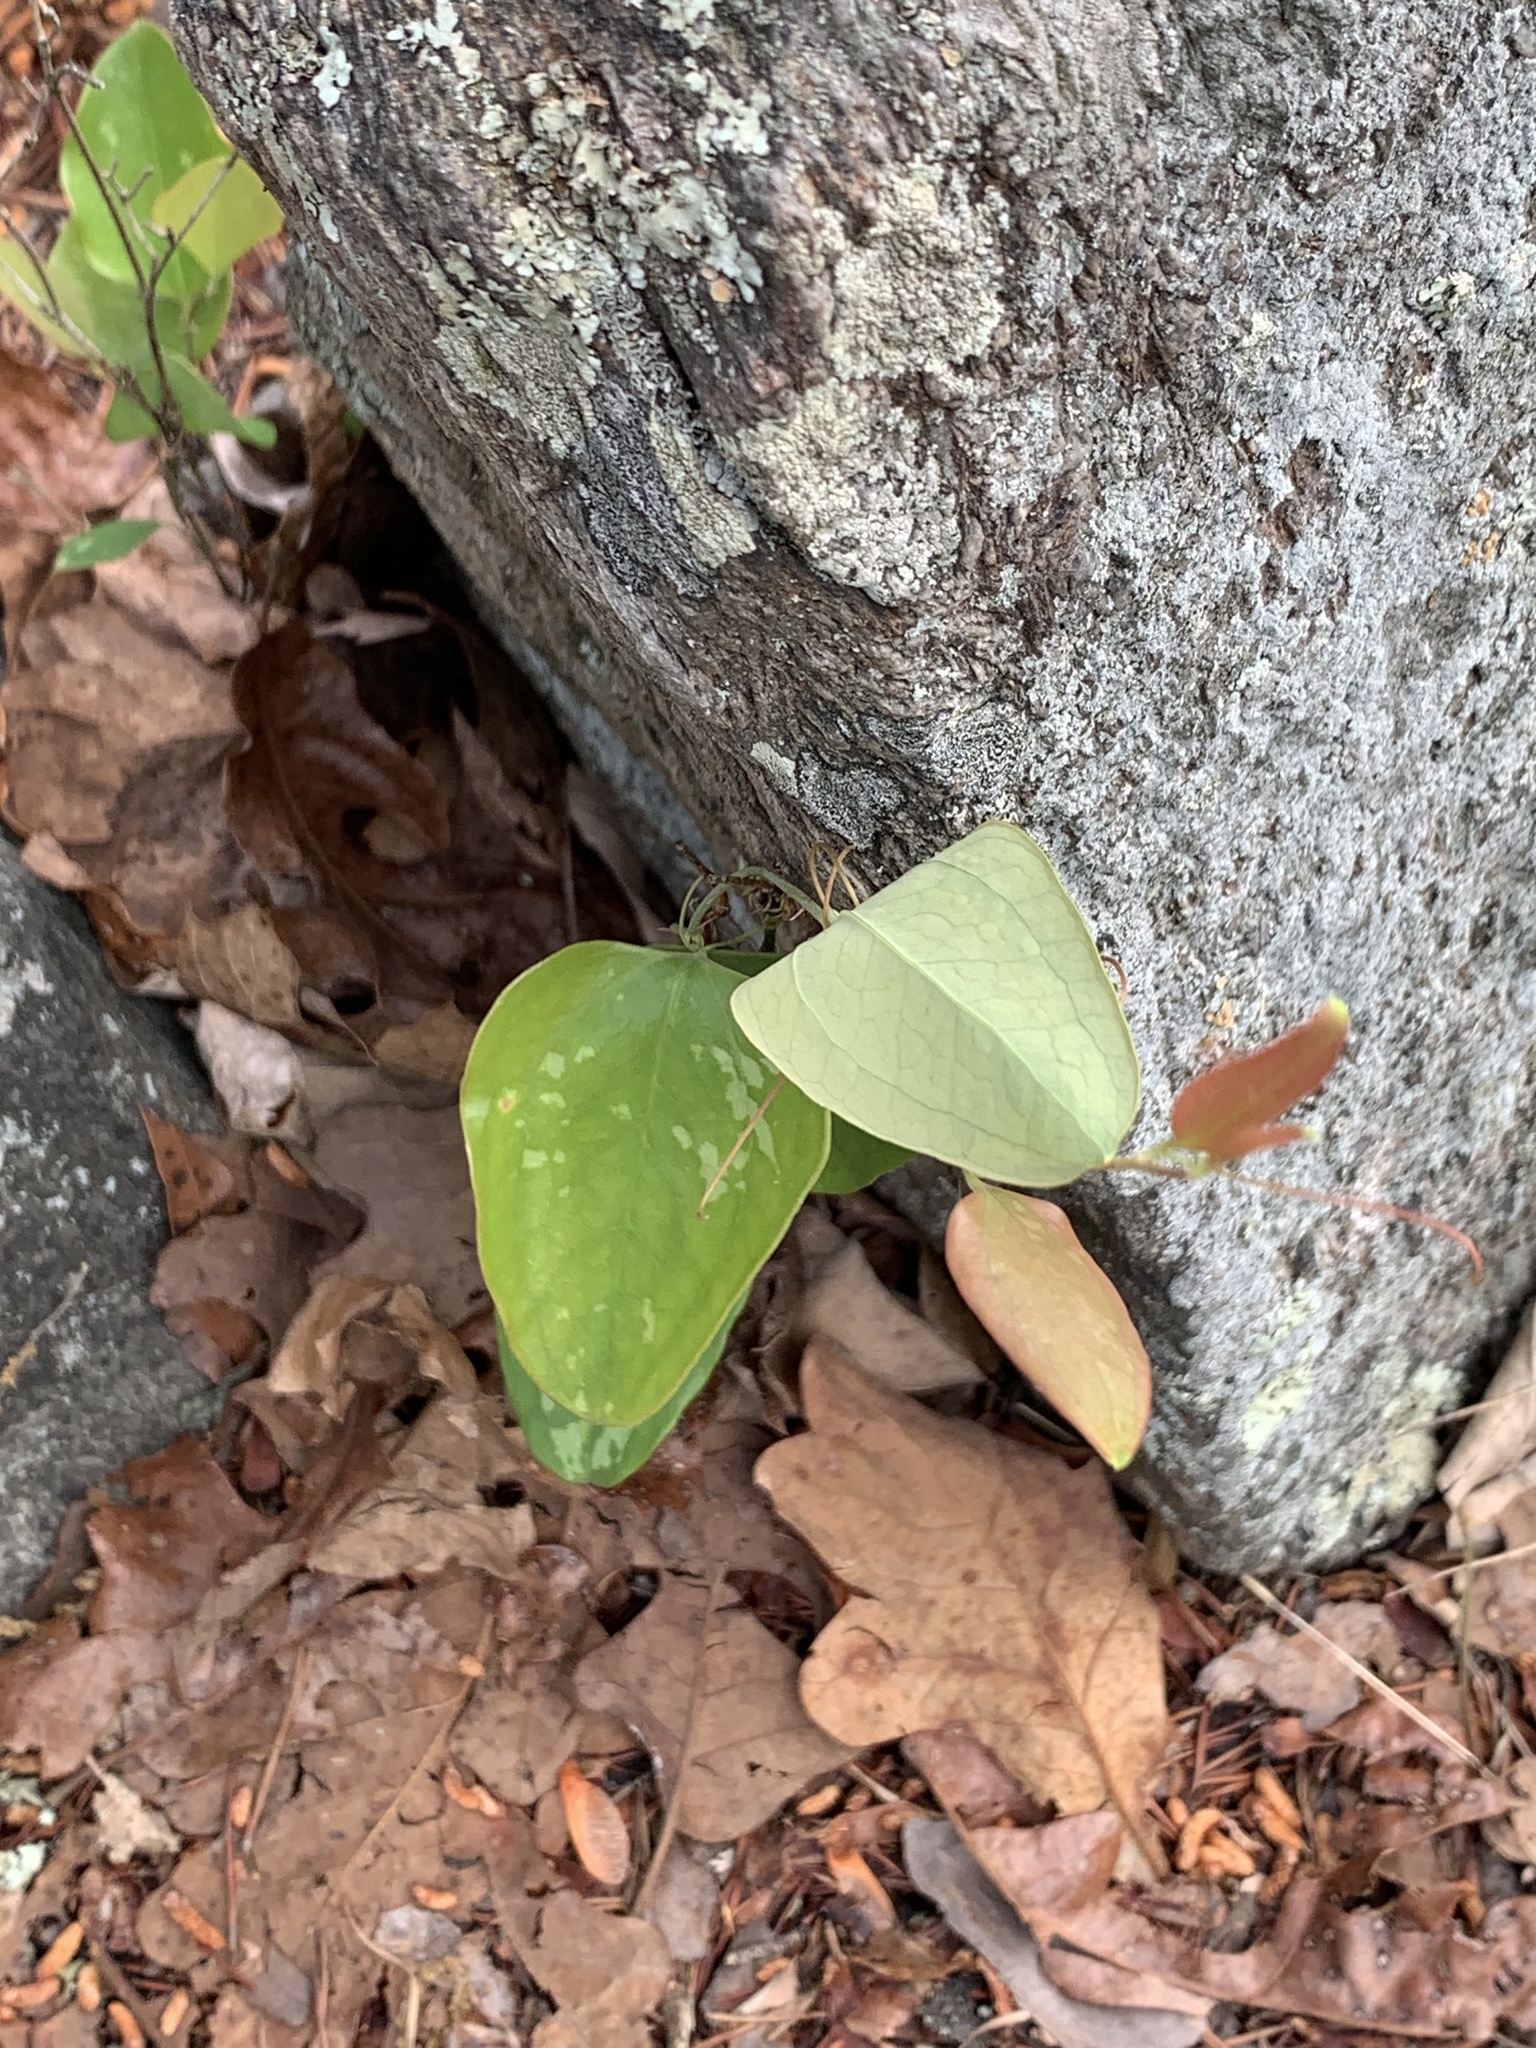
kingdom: Plantae
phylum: Tracheophyta
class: Liliopsida
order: Liliales
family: Smilacaceae
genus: Smilax
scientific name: Smilax glauca
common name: Cat greenbrier
